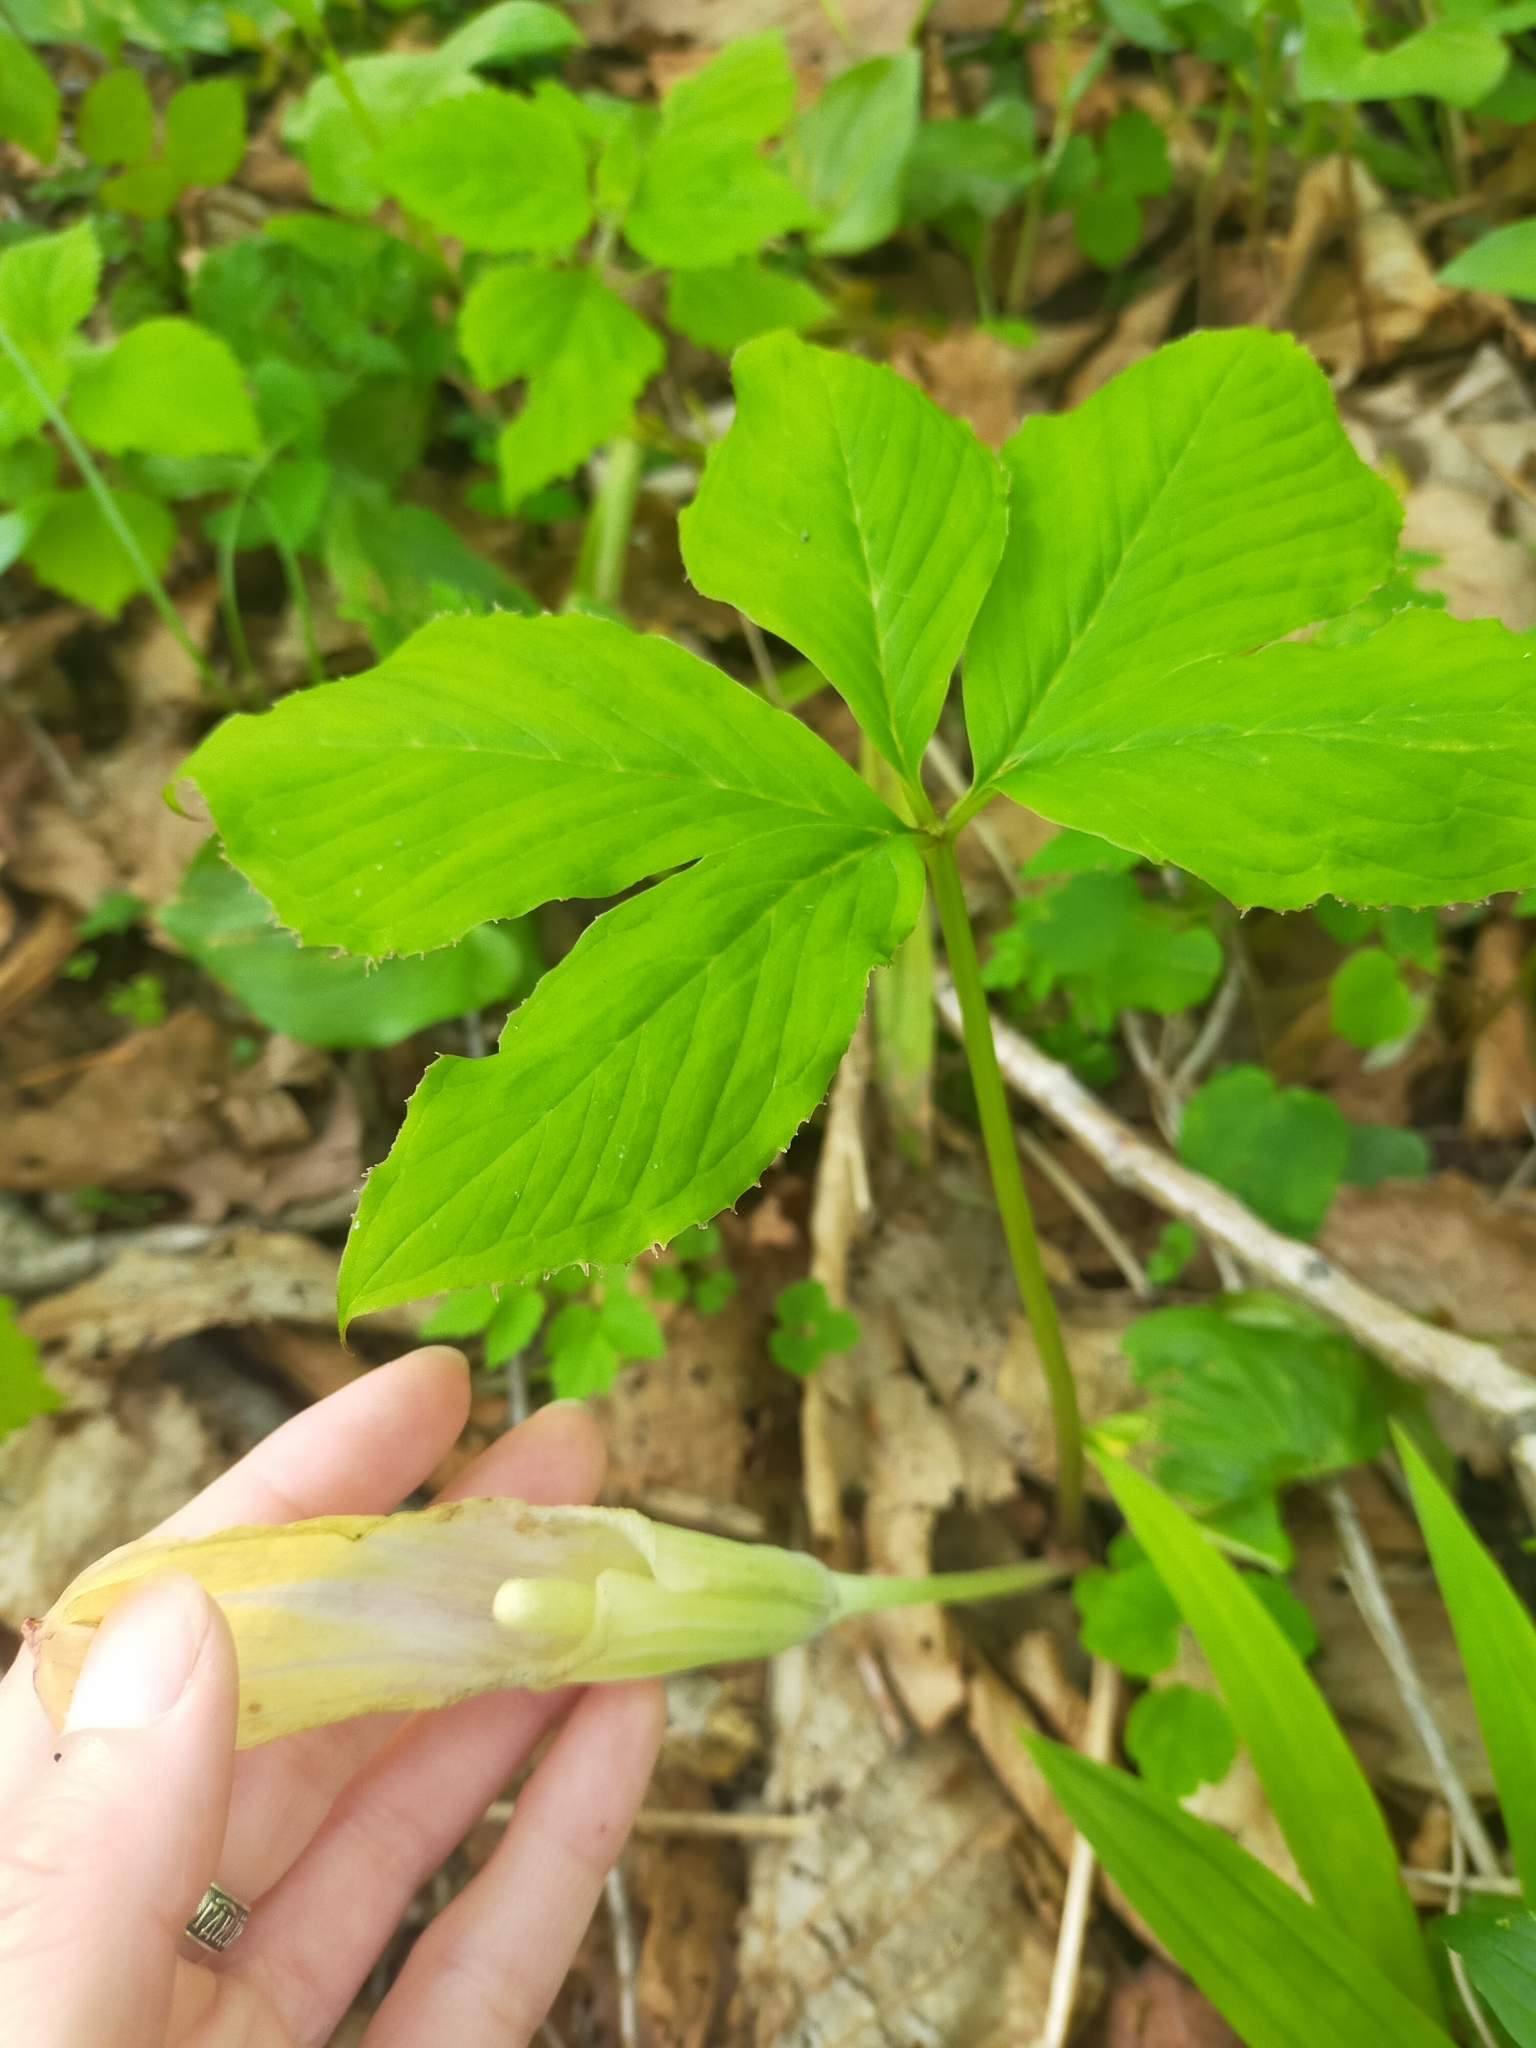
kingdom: Plantae
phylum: Tracheophyta
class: Liliopsida
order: Alismatales
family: Araceae
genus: Arisaema
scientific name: Arisaema amurense
